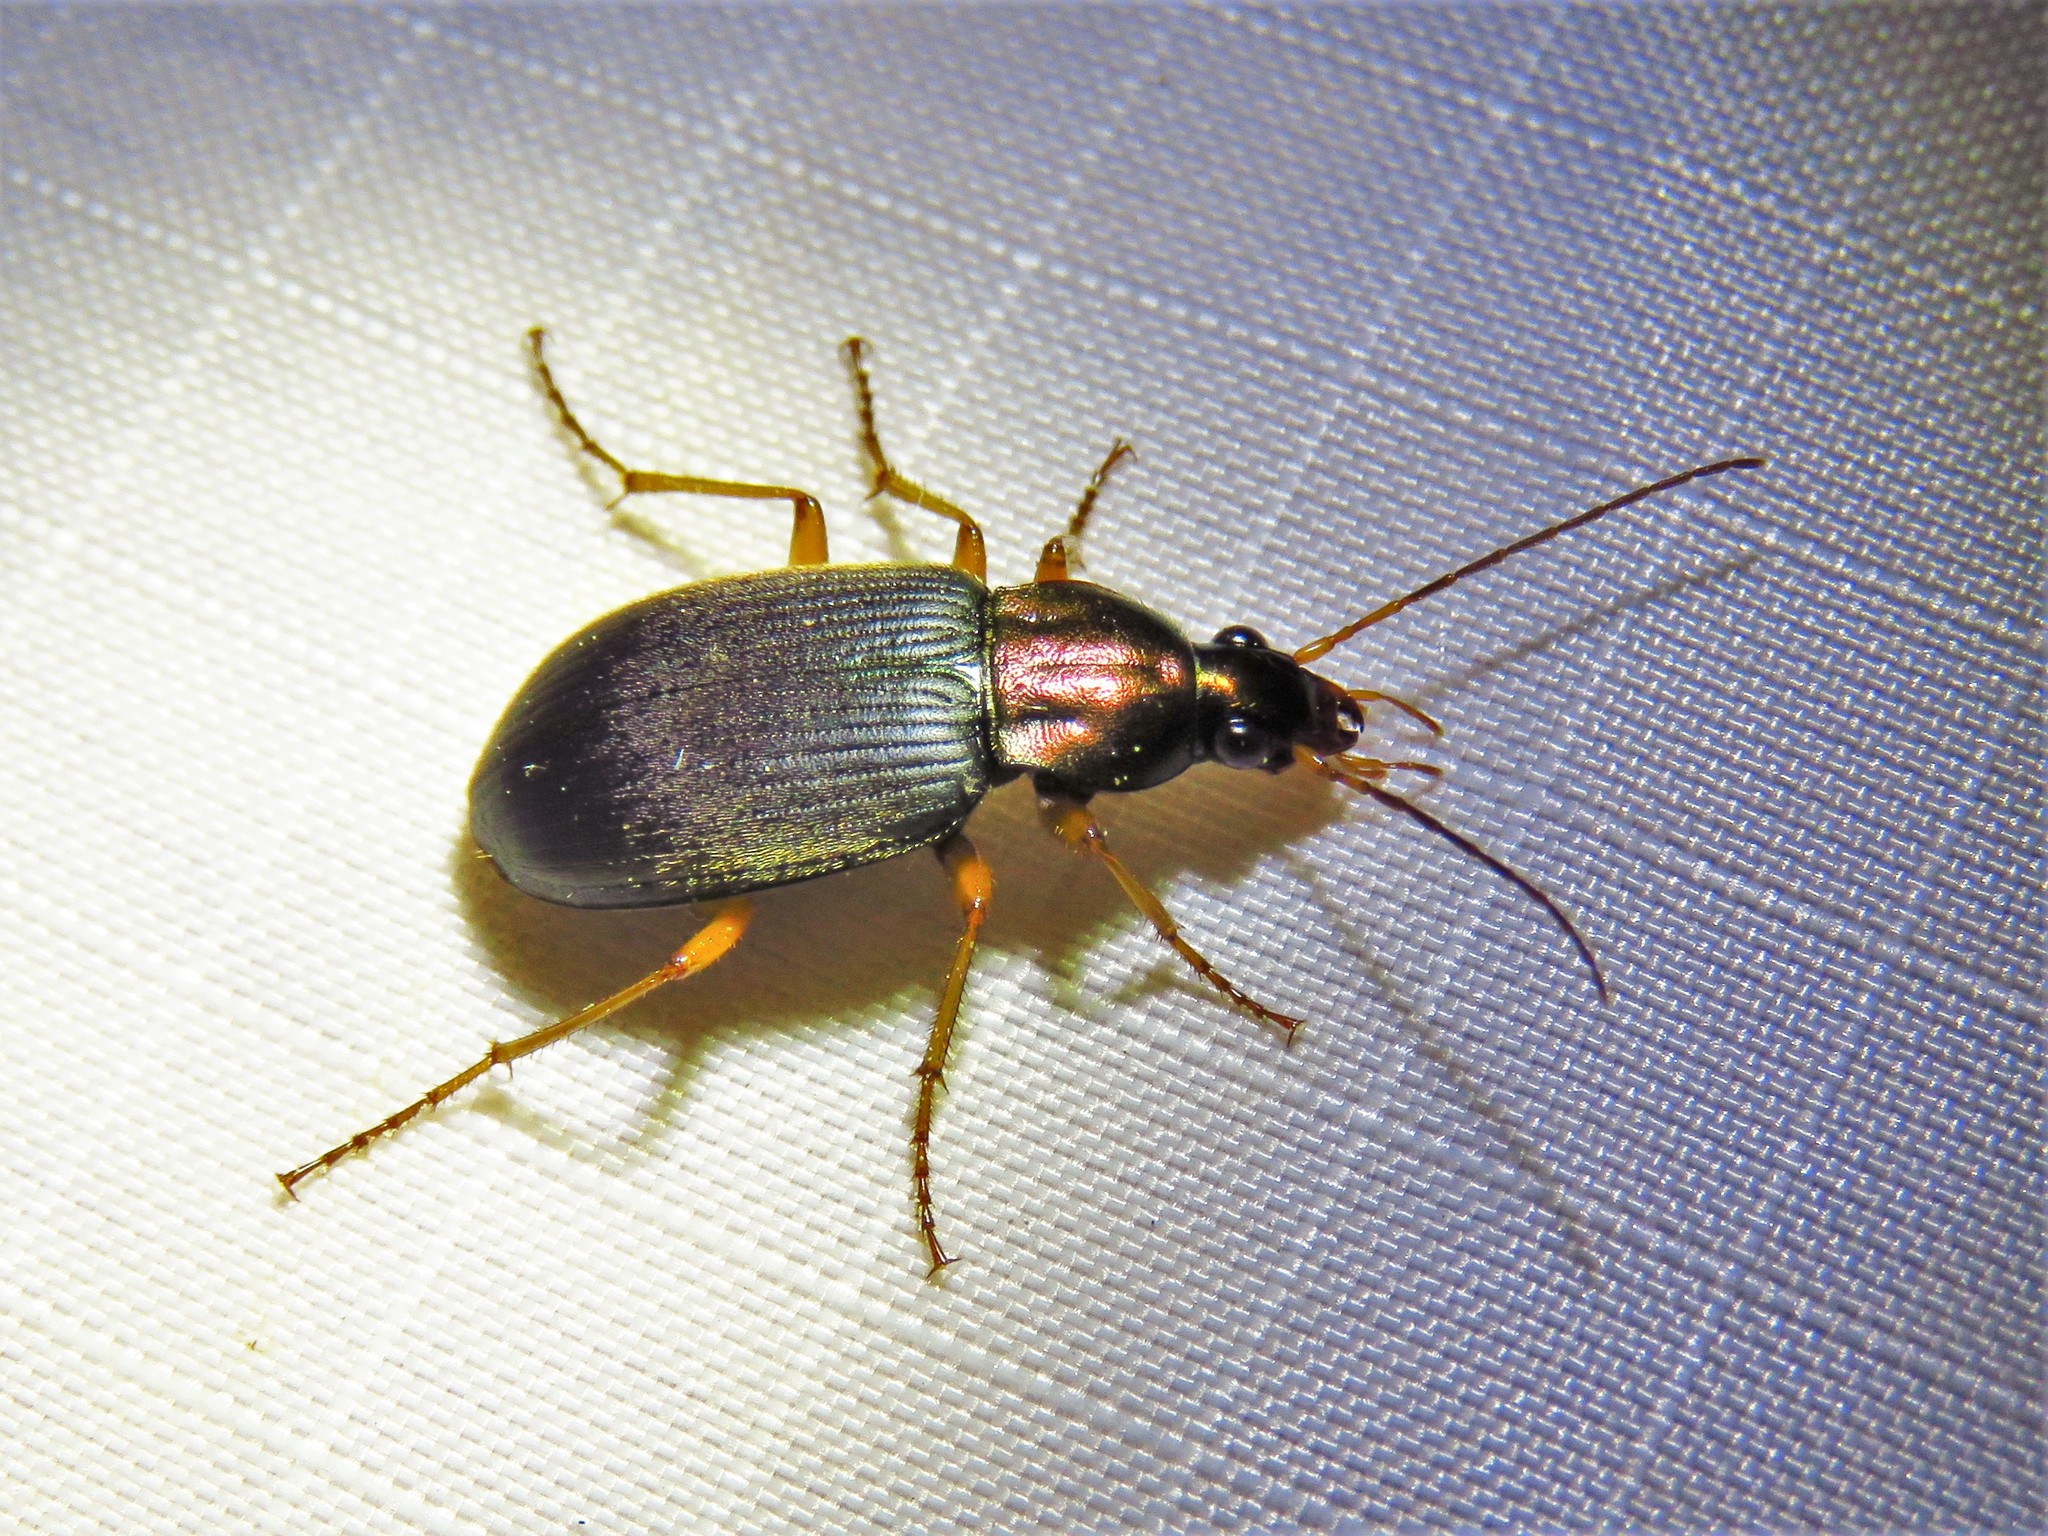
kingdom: Animalia
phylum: Arthropoda
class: Insecta
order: Coleoptera
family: Carabidae
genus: Chlaenius
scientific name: Chlaenius tricolor
